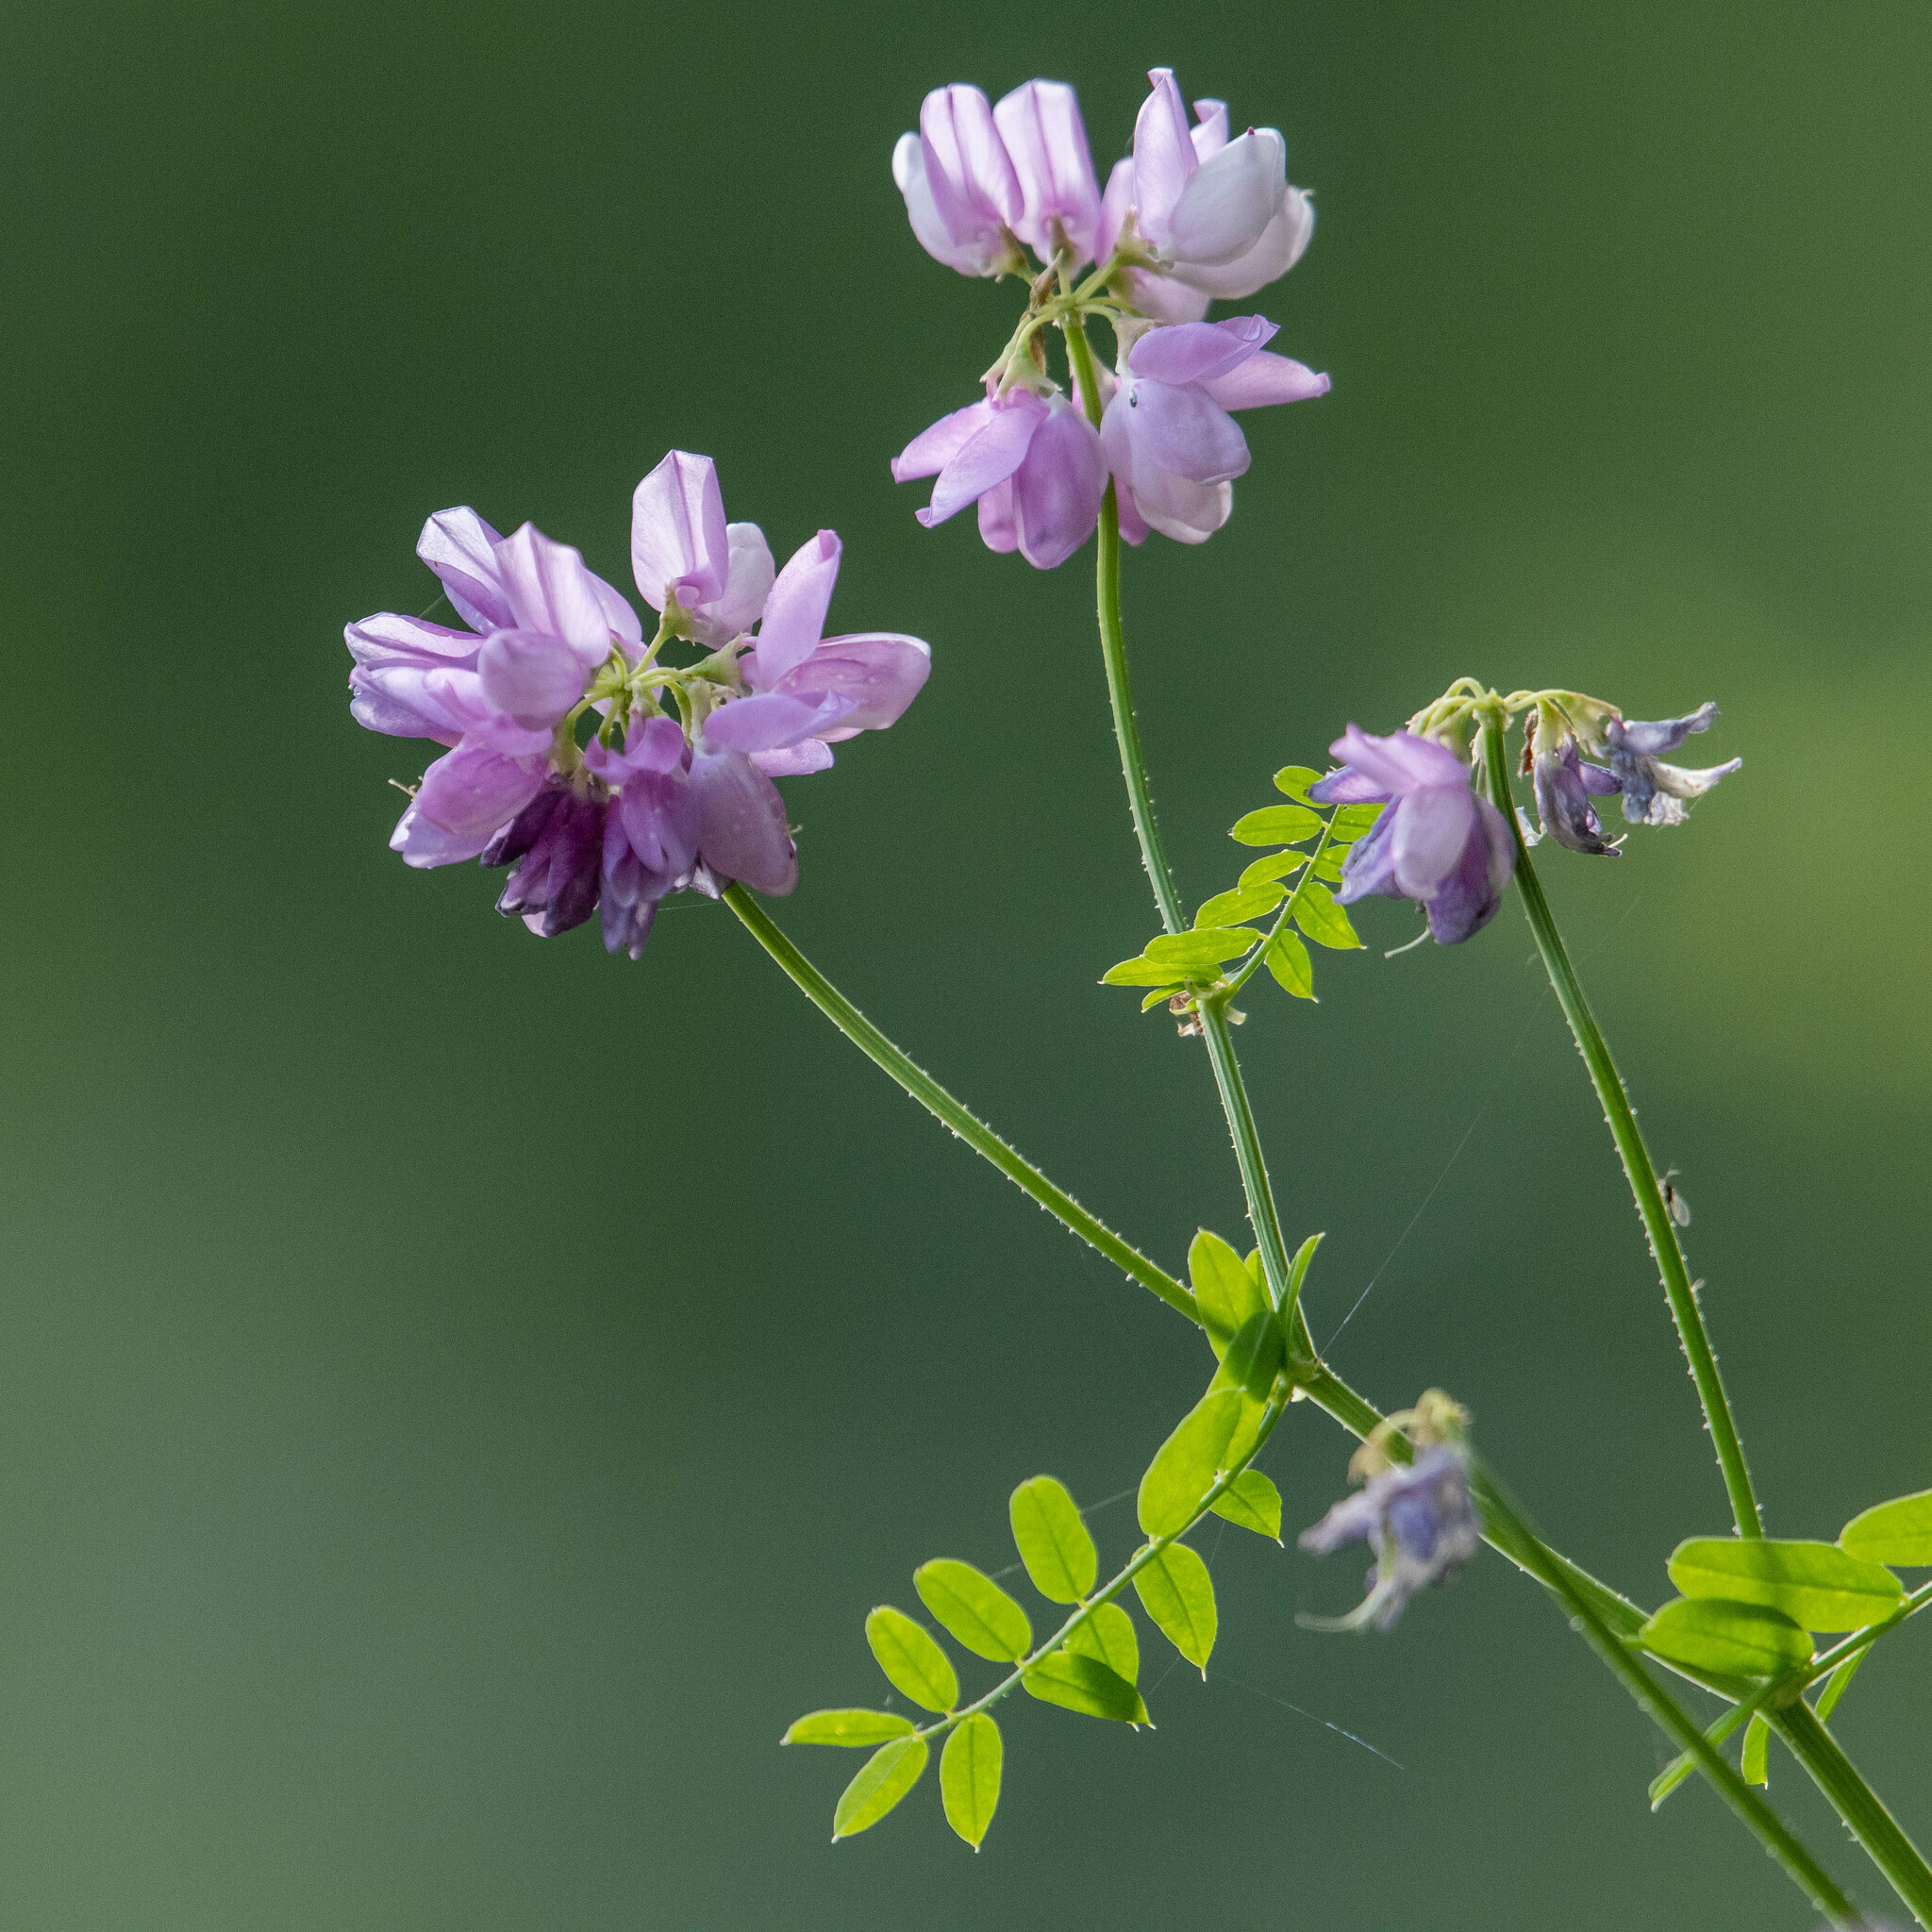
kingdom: Plantae
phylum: Tracheophyta
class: Magnoliopsida
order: Fabales
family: Fabaceae
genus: Coronilla
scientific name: Coronilla varia
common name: Crownvetch
